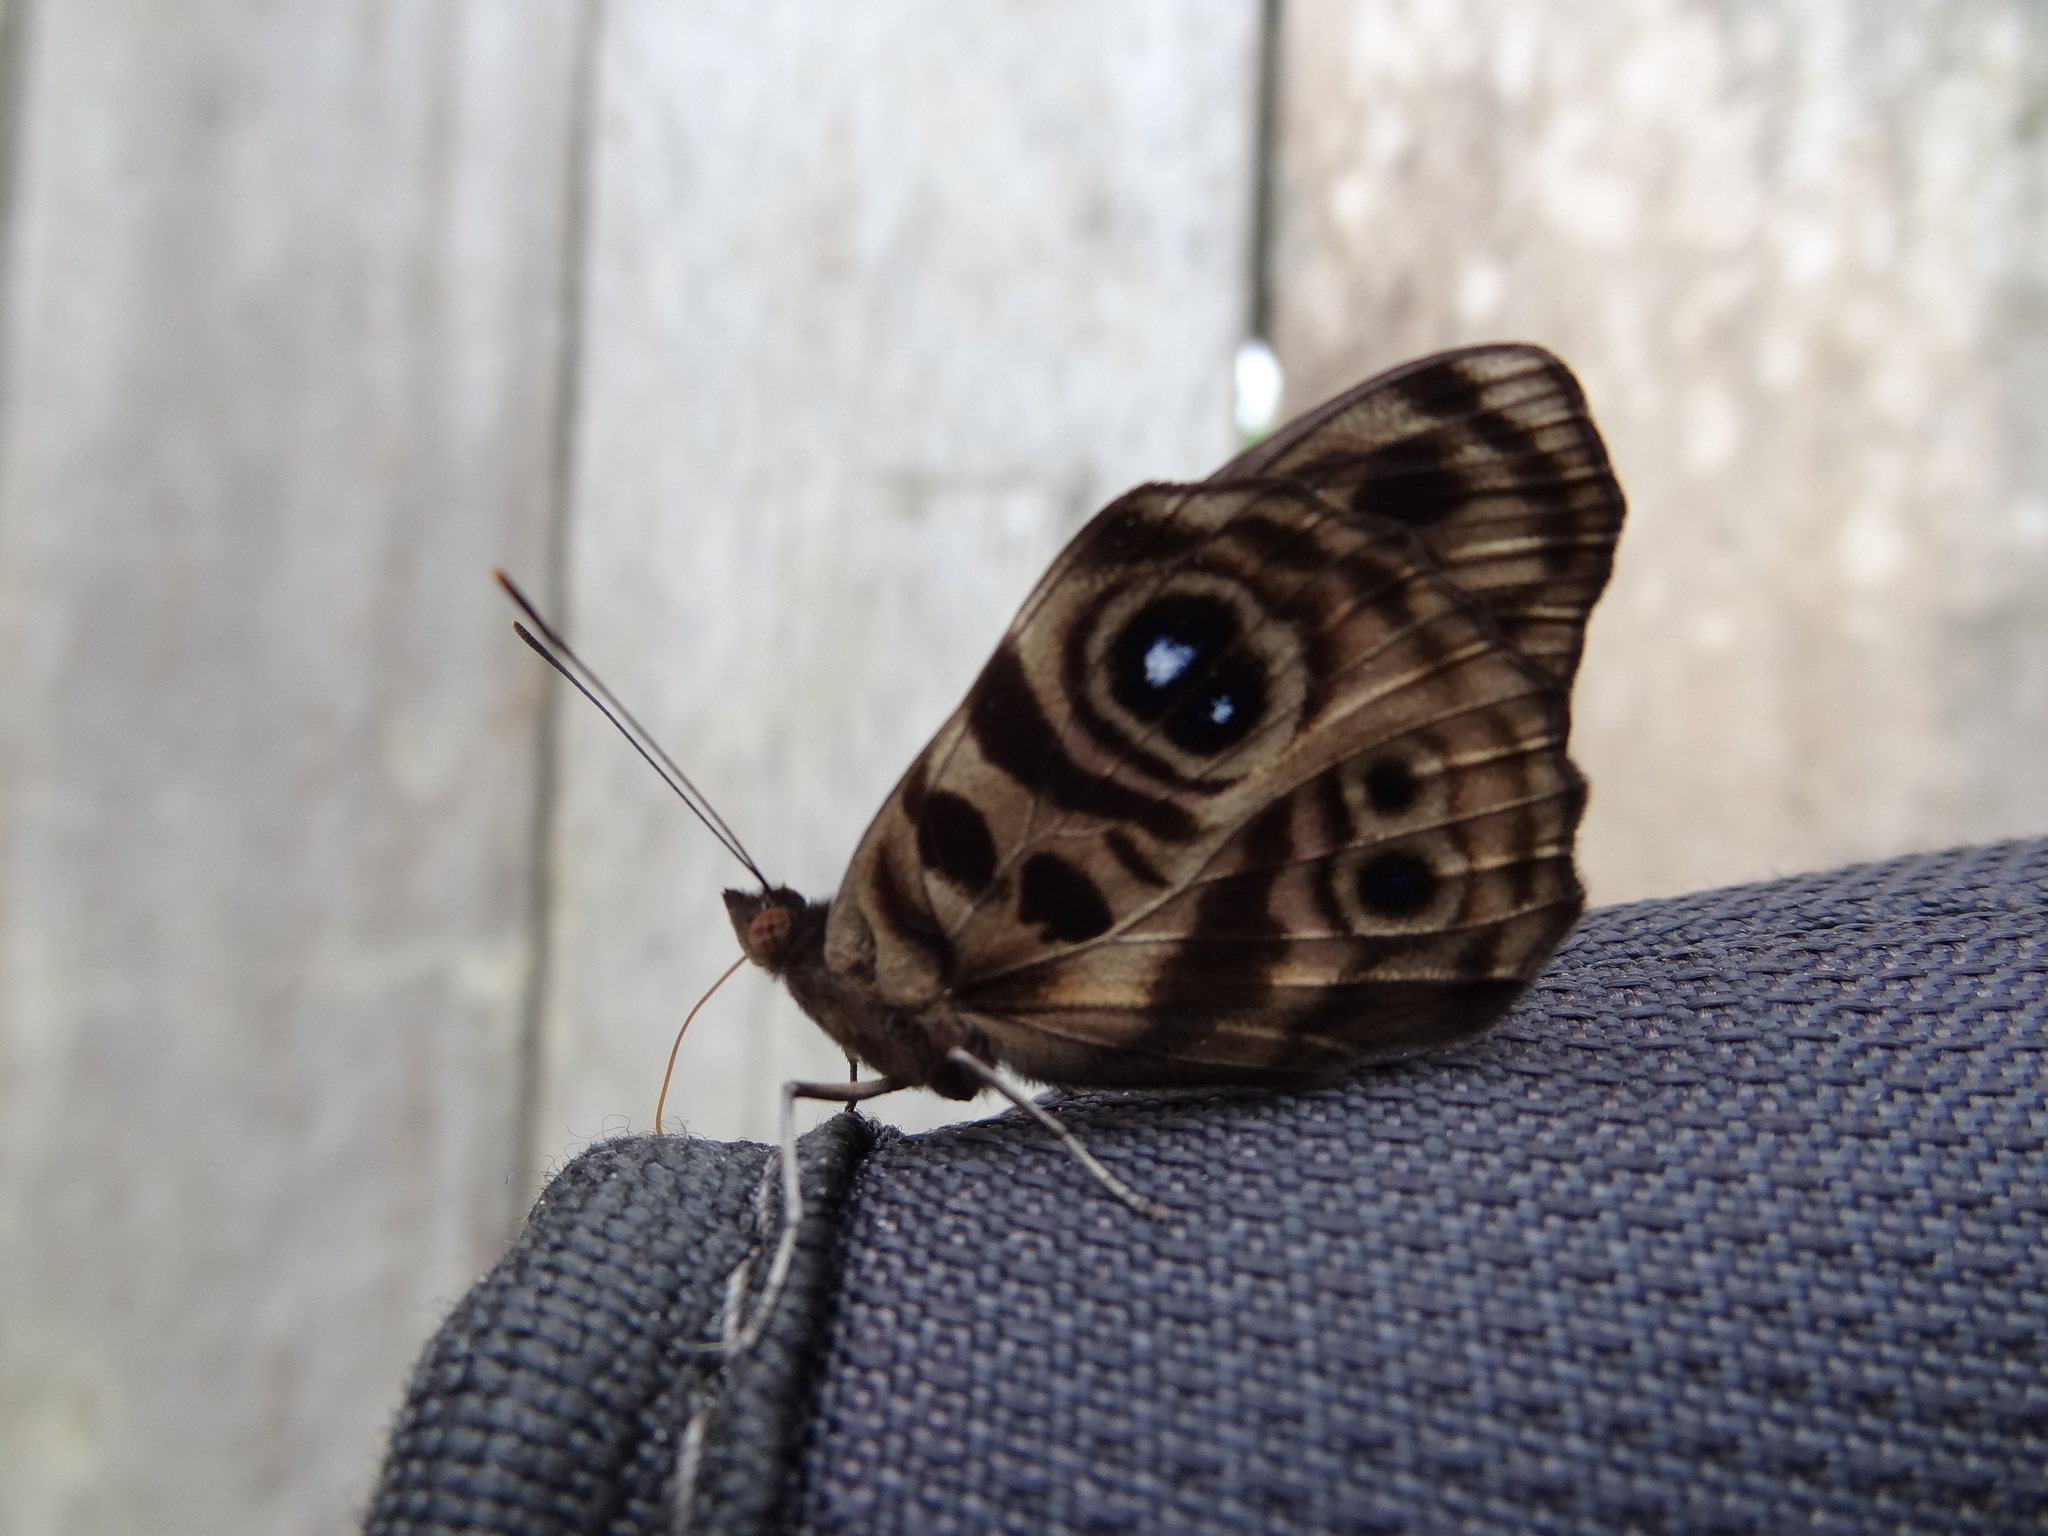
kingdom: Animalia
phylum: Arthropoda
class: Insecta
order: Lepidoptera
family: Nymphalidae
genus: Eunica
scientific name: Eunica norica
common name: Norica purplewing
